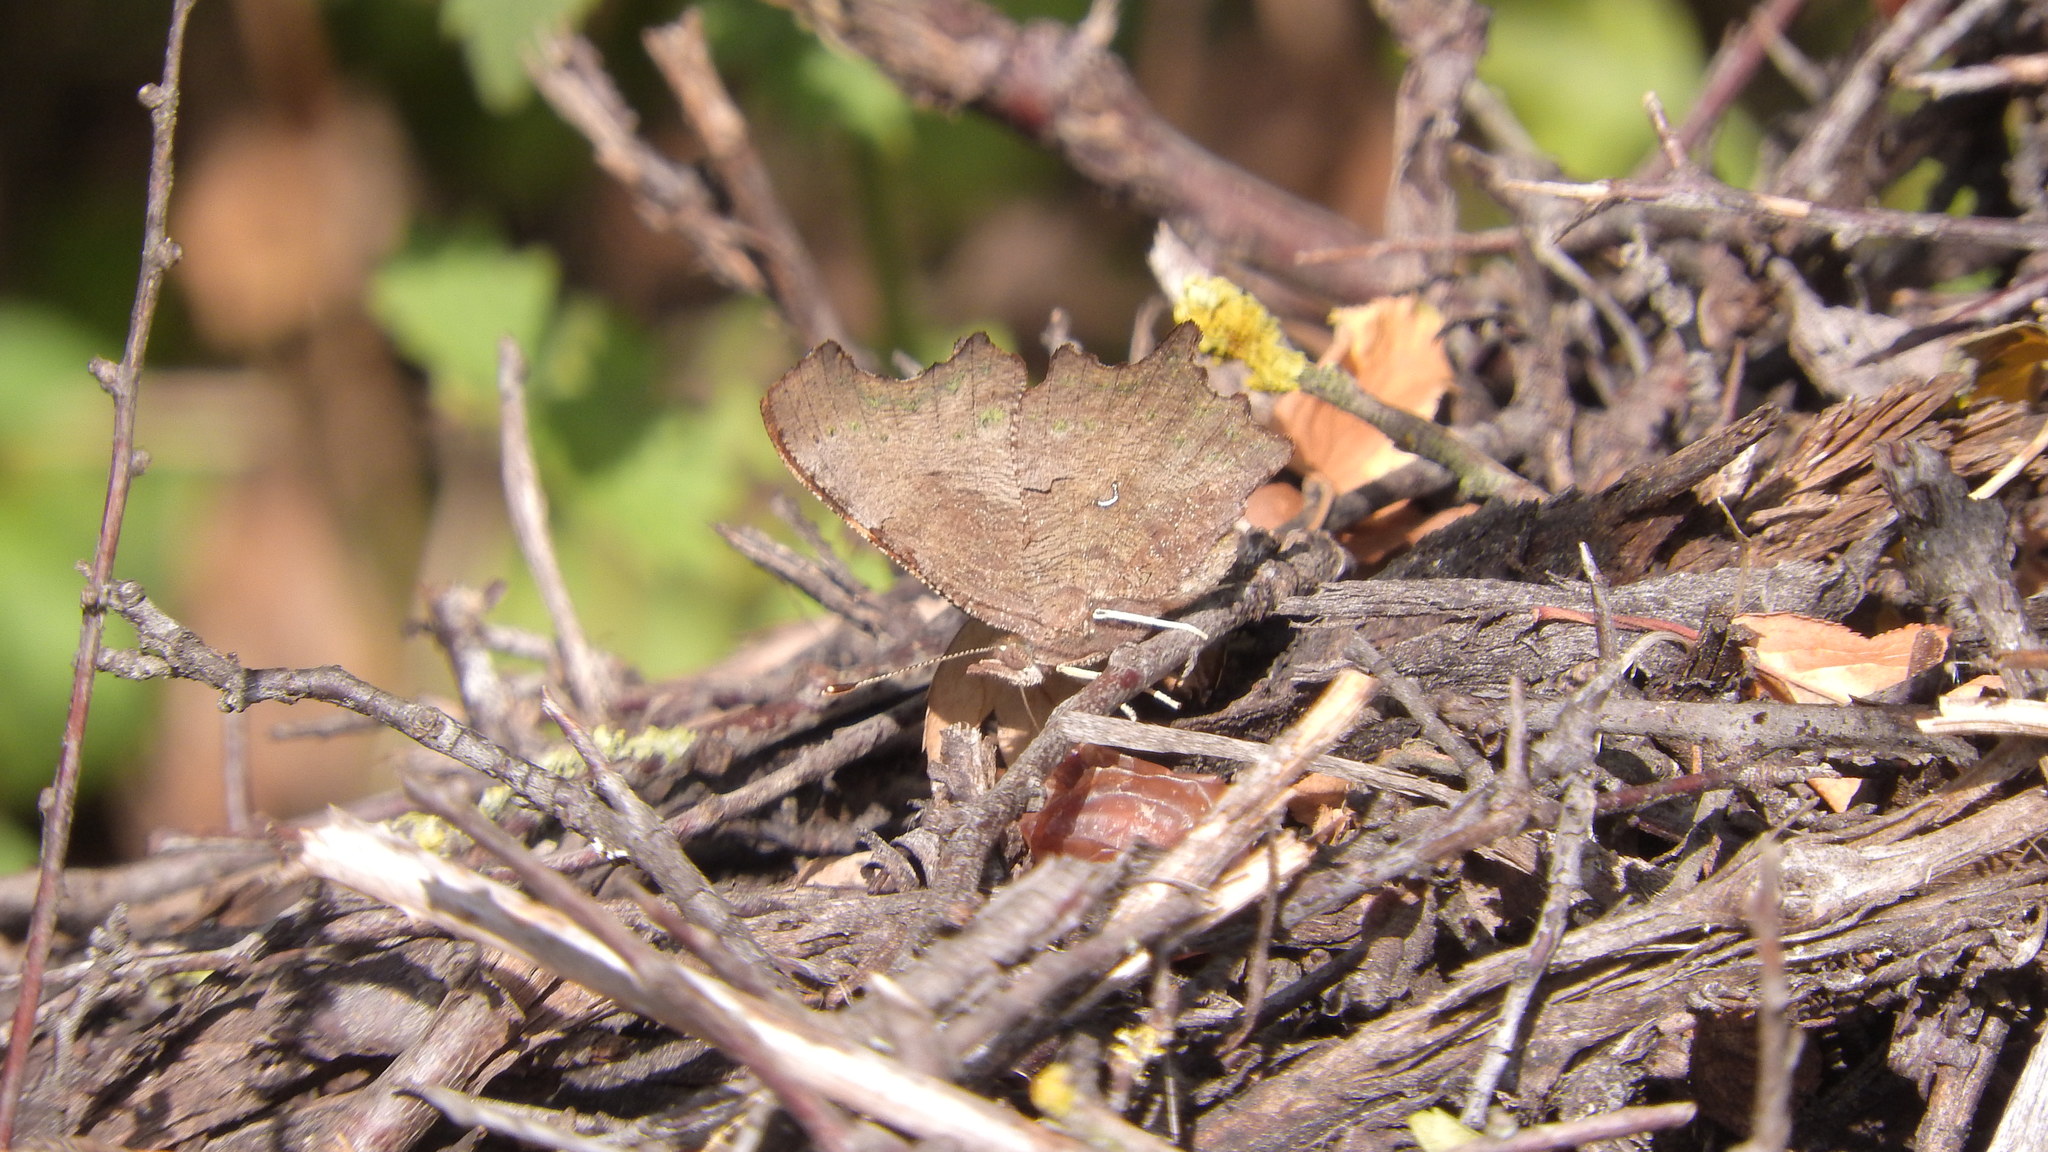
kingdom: Animalia
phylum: Arthropoda
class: Insecta
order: Lepidoptera
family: Nymphalidae
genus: Polygonia
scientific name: Polygonia c-album
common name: Comma
